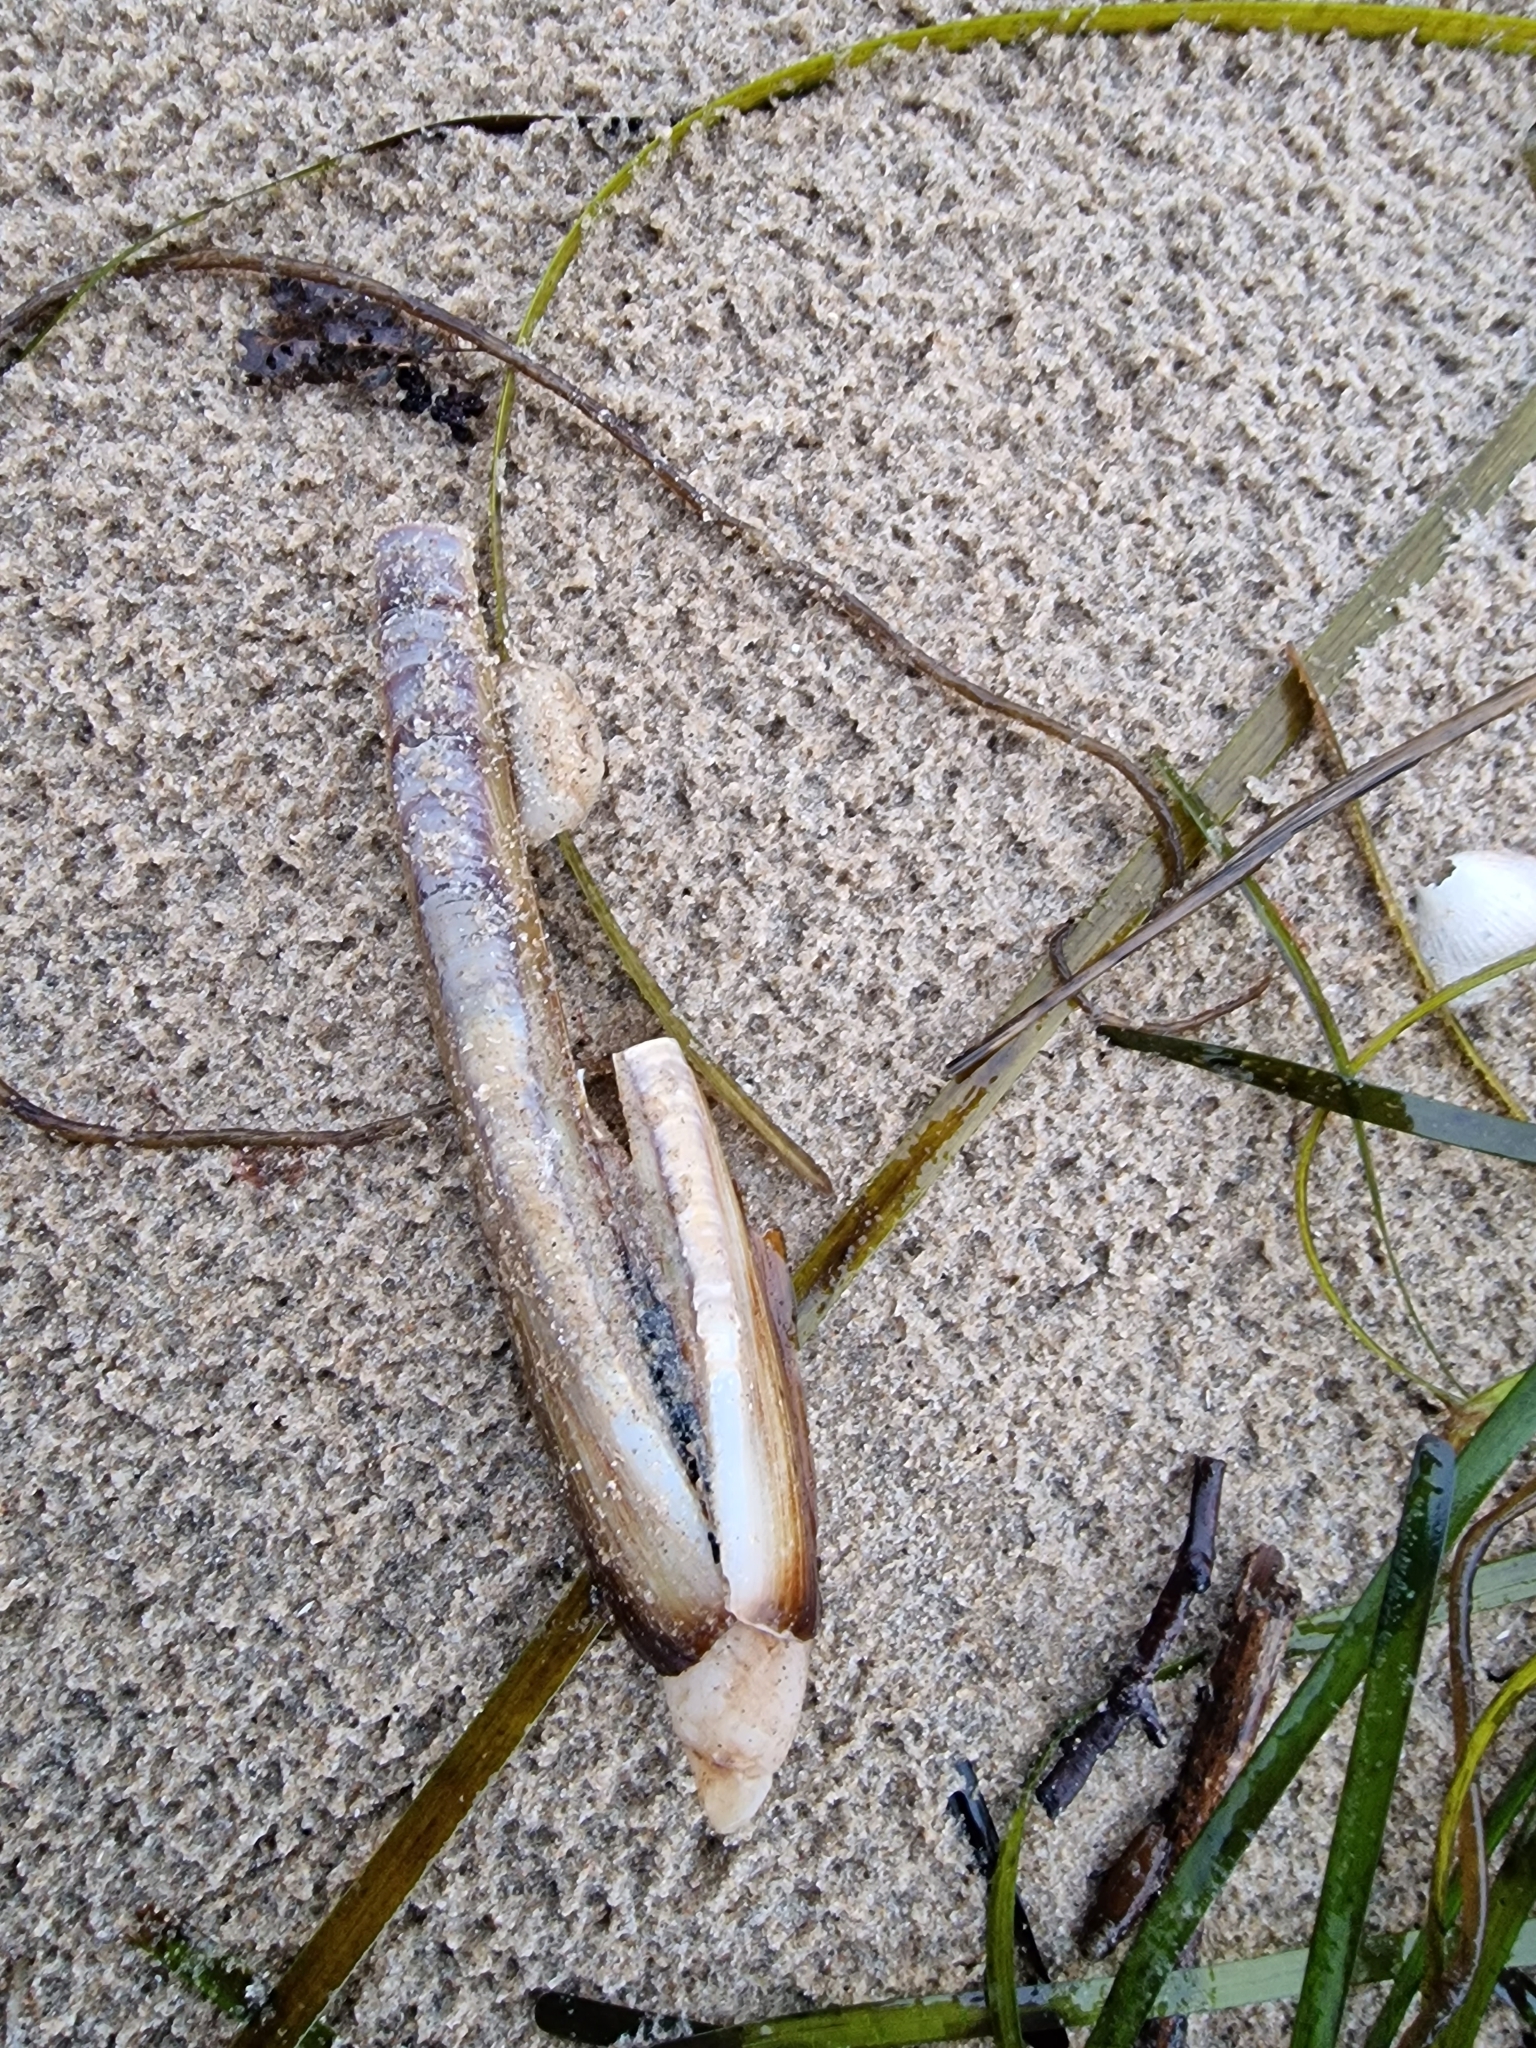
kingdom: Animalia
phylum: Mollusca
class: Bivalvia
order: Adapedonta
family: Pharidae
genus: Ensis
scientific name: Ensis leei
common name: American jack knife clam
